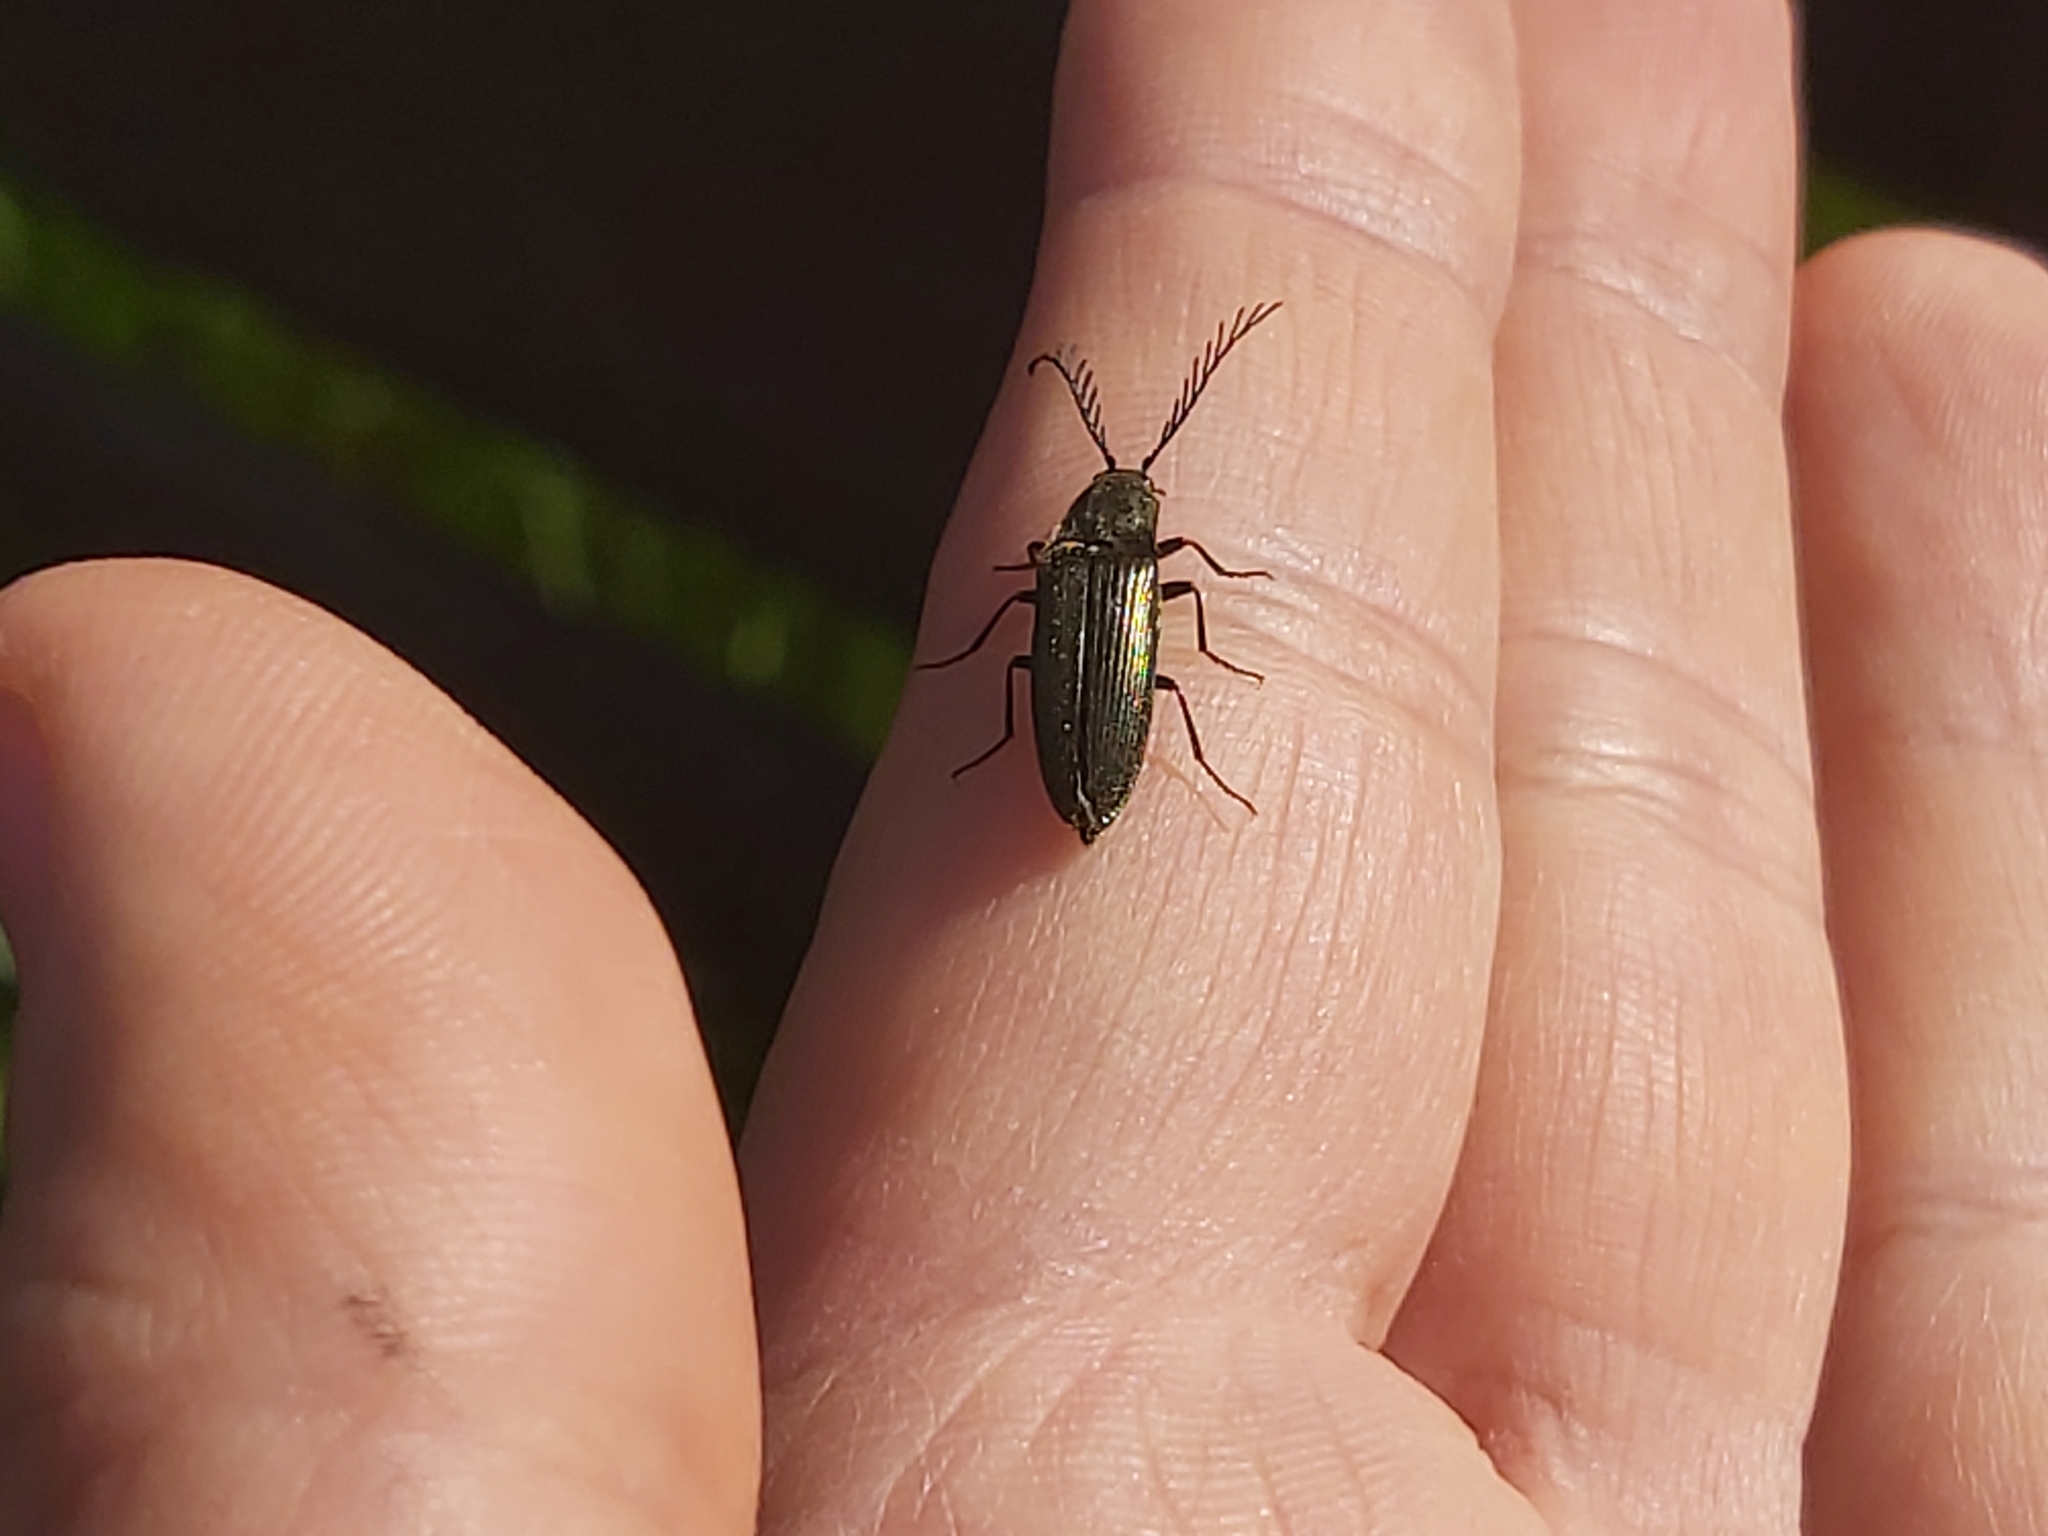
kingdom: Animalia
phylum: Arthropoda
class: Insecta
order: Coleoptera
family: Elateridae
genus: Ctenicera
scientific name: Ctenicera pectinicornis
